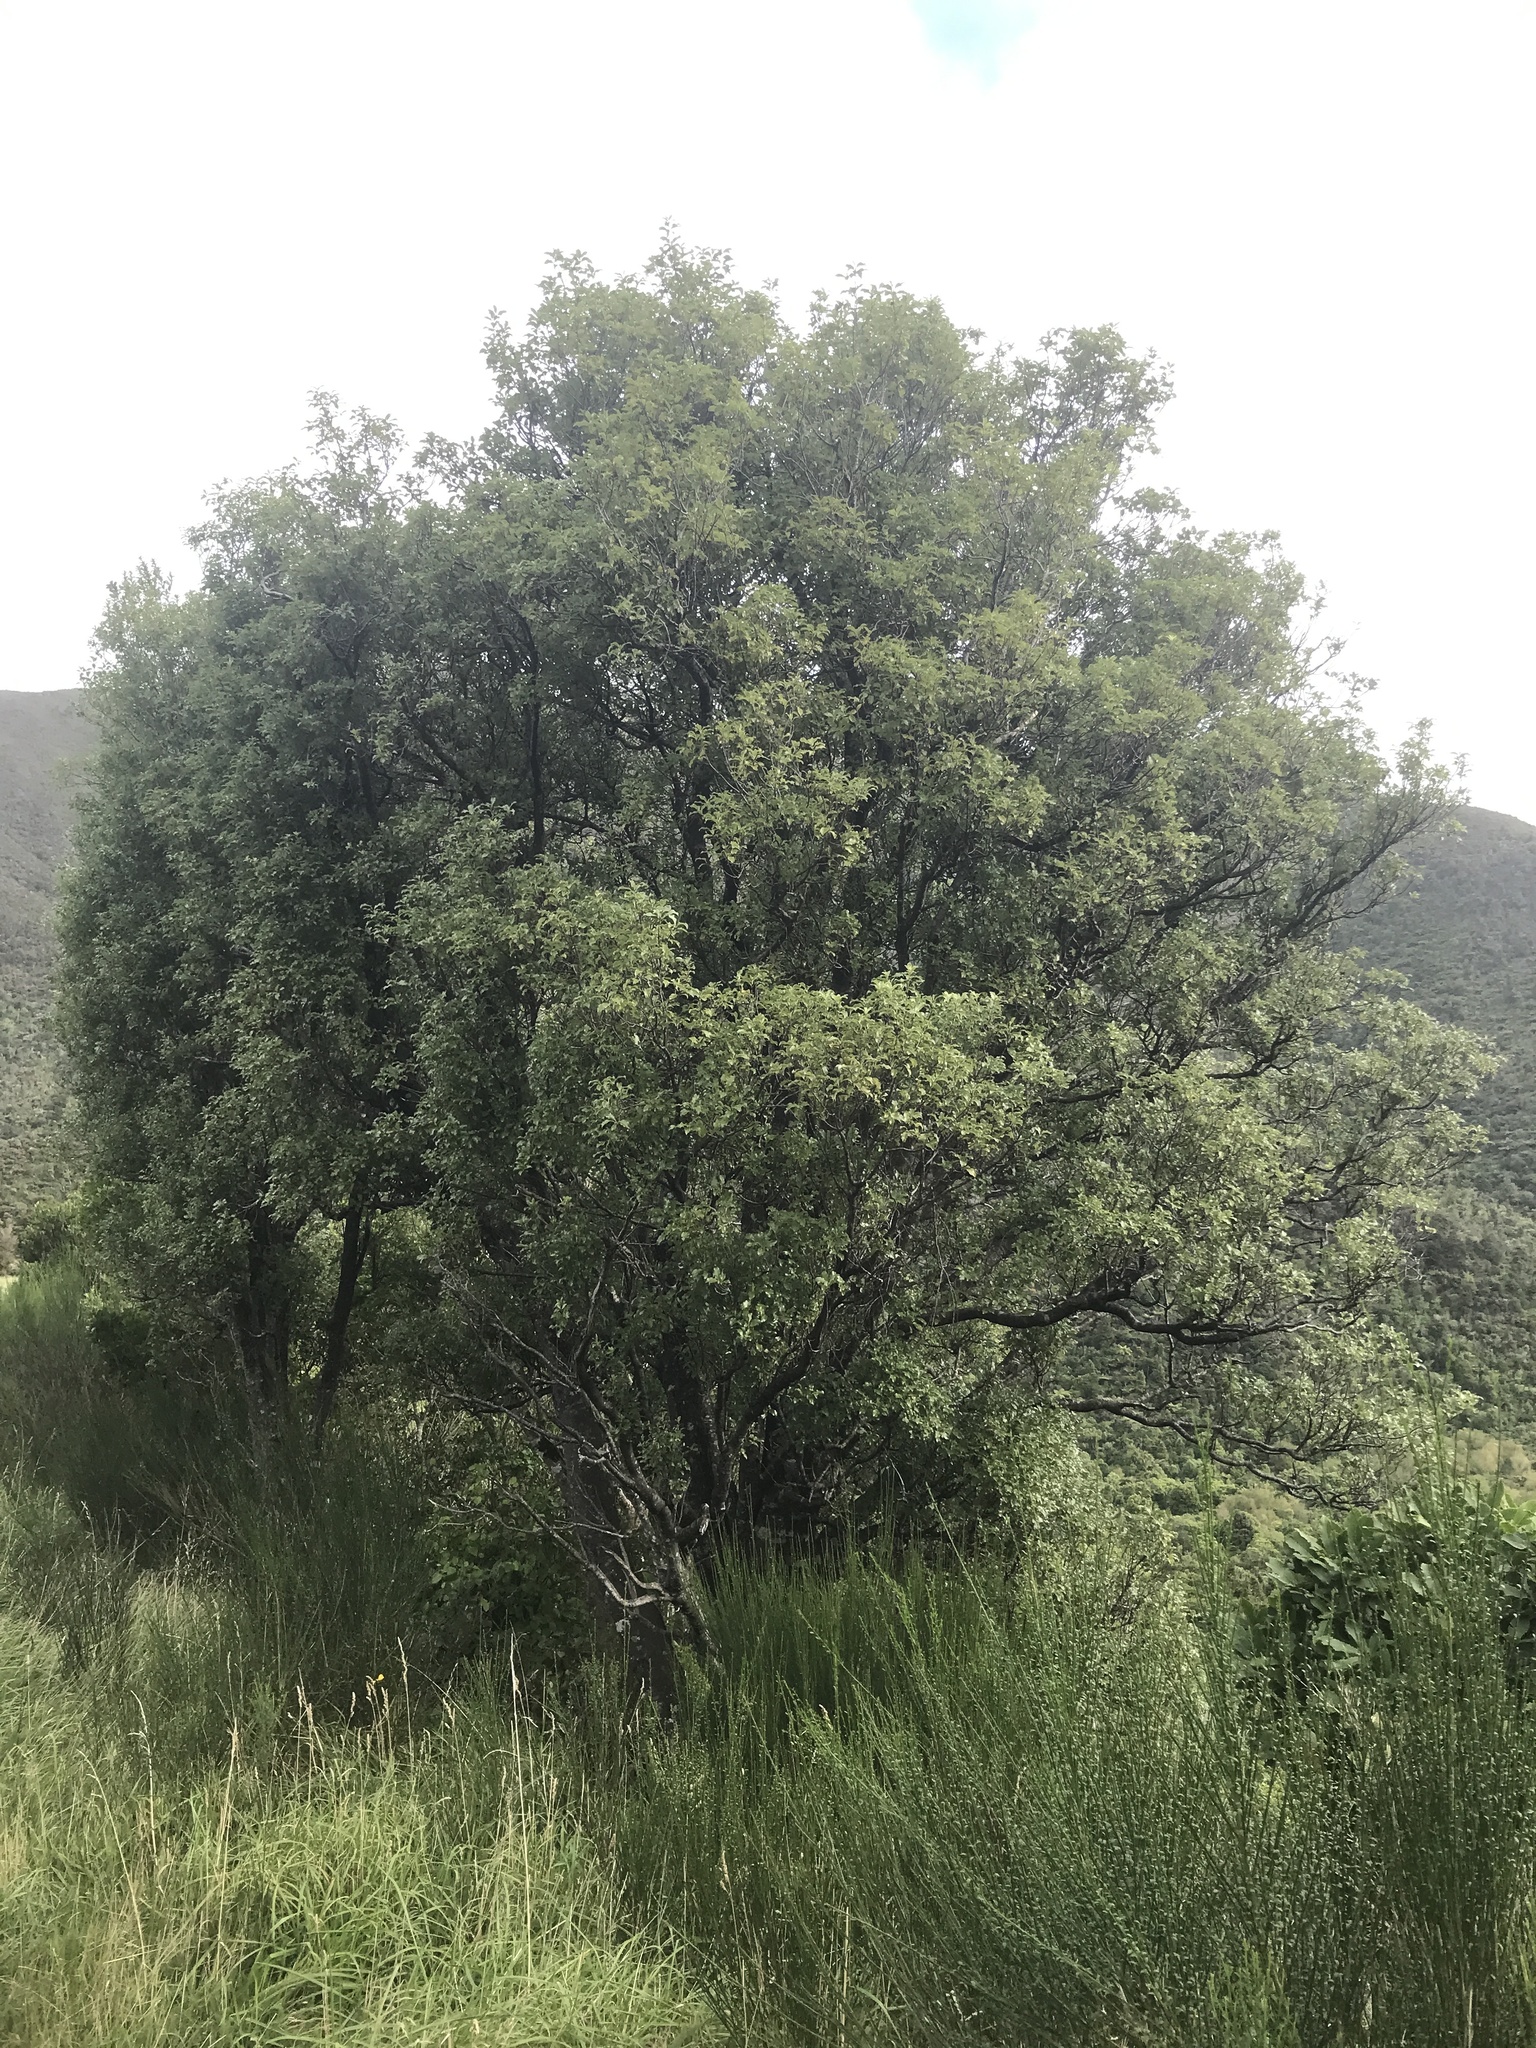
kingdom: Plantae
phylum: Tracheophyta
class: Magnoliopsida
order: Apiales
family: Pittosporaceae
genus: Pittosporum
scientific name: Pittosporum tenuifolium
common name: Kohuhu
